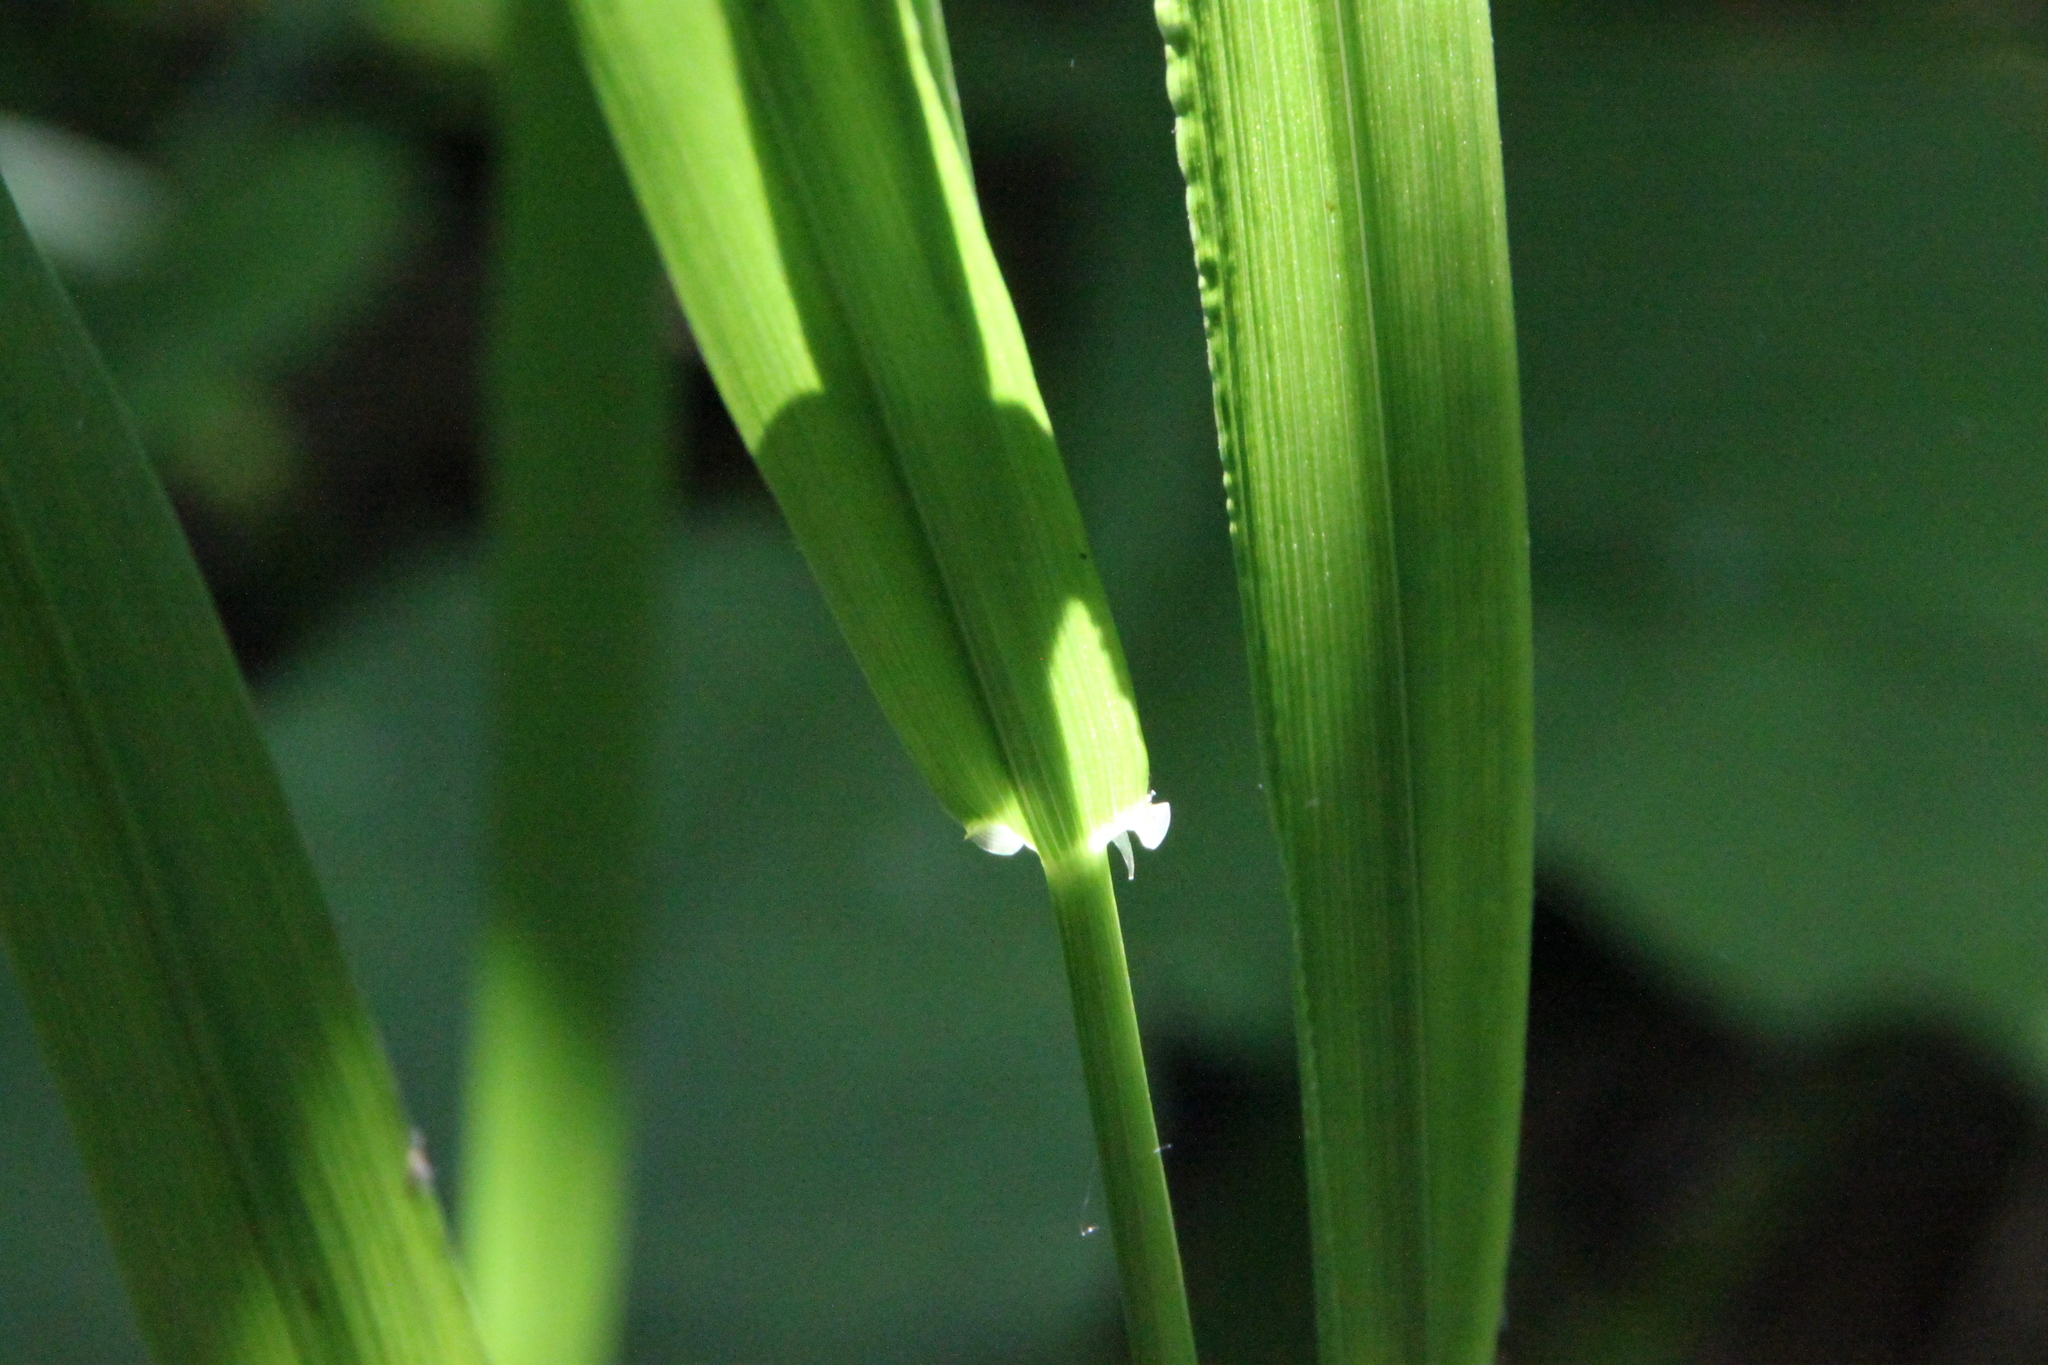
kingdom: Plantae
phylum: Tracheophyta
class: Liliopsida
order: Poales
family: Poaceae
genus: Lolium
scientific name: Lolium giganteum
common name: Giant fescue
